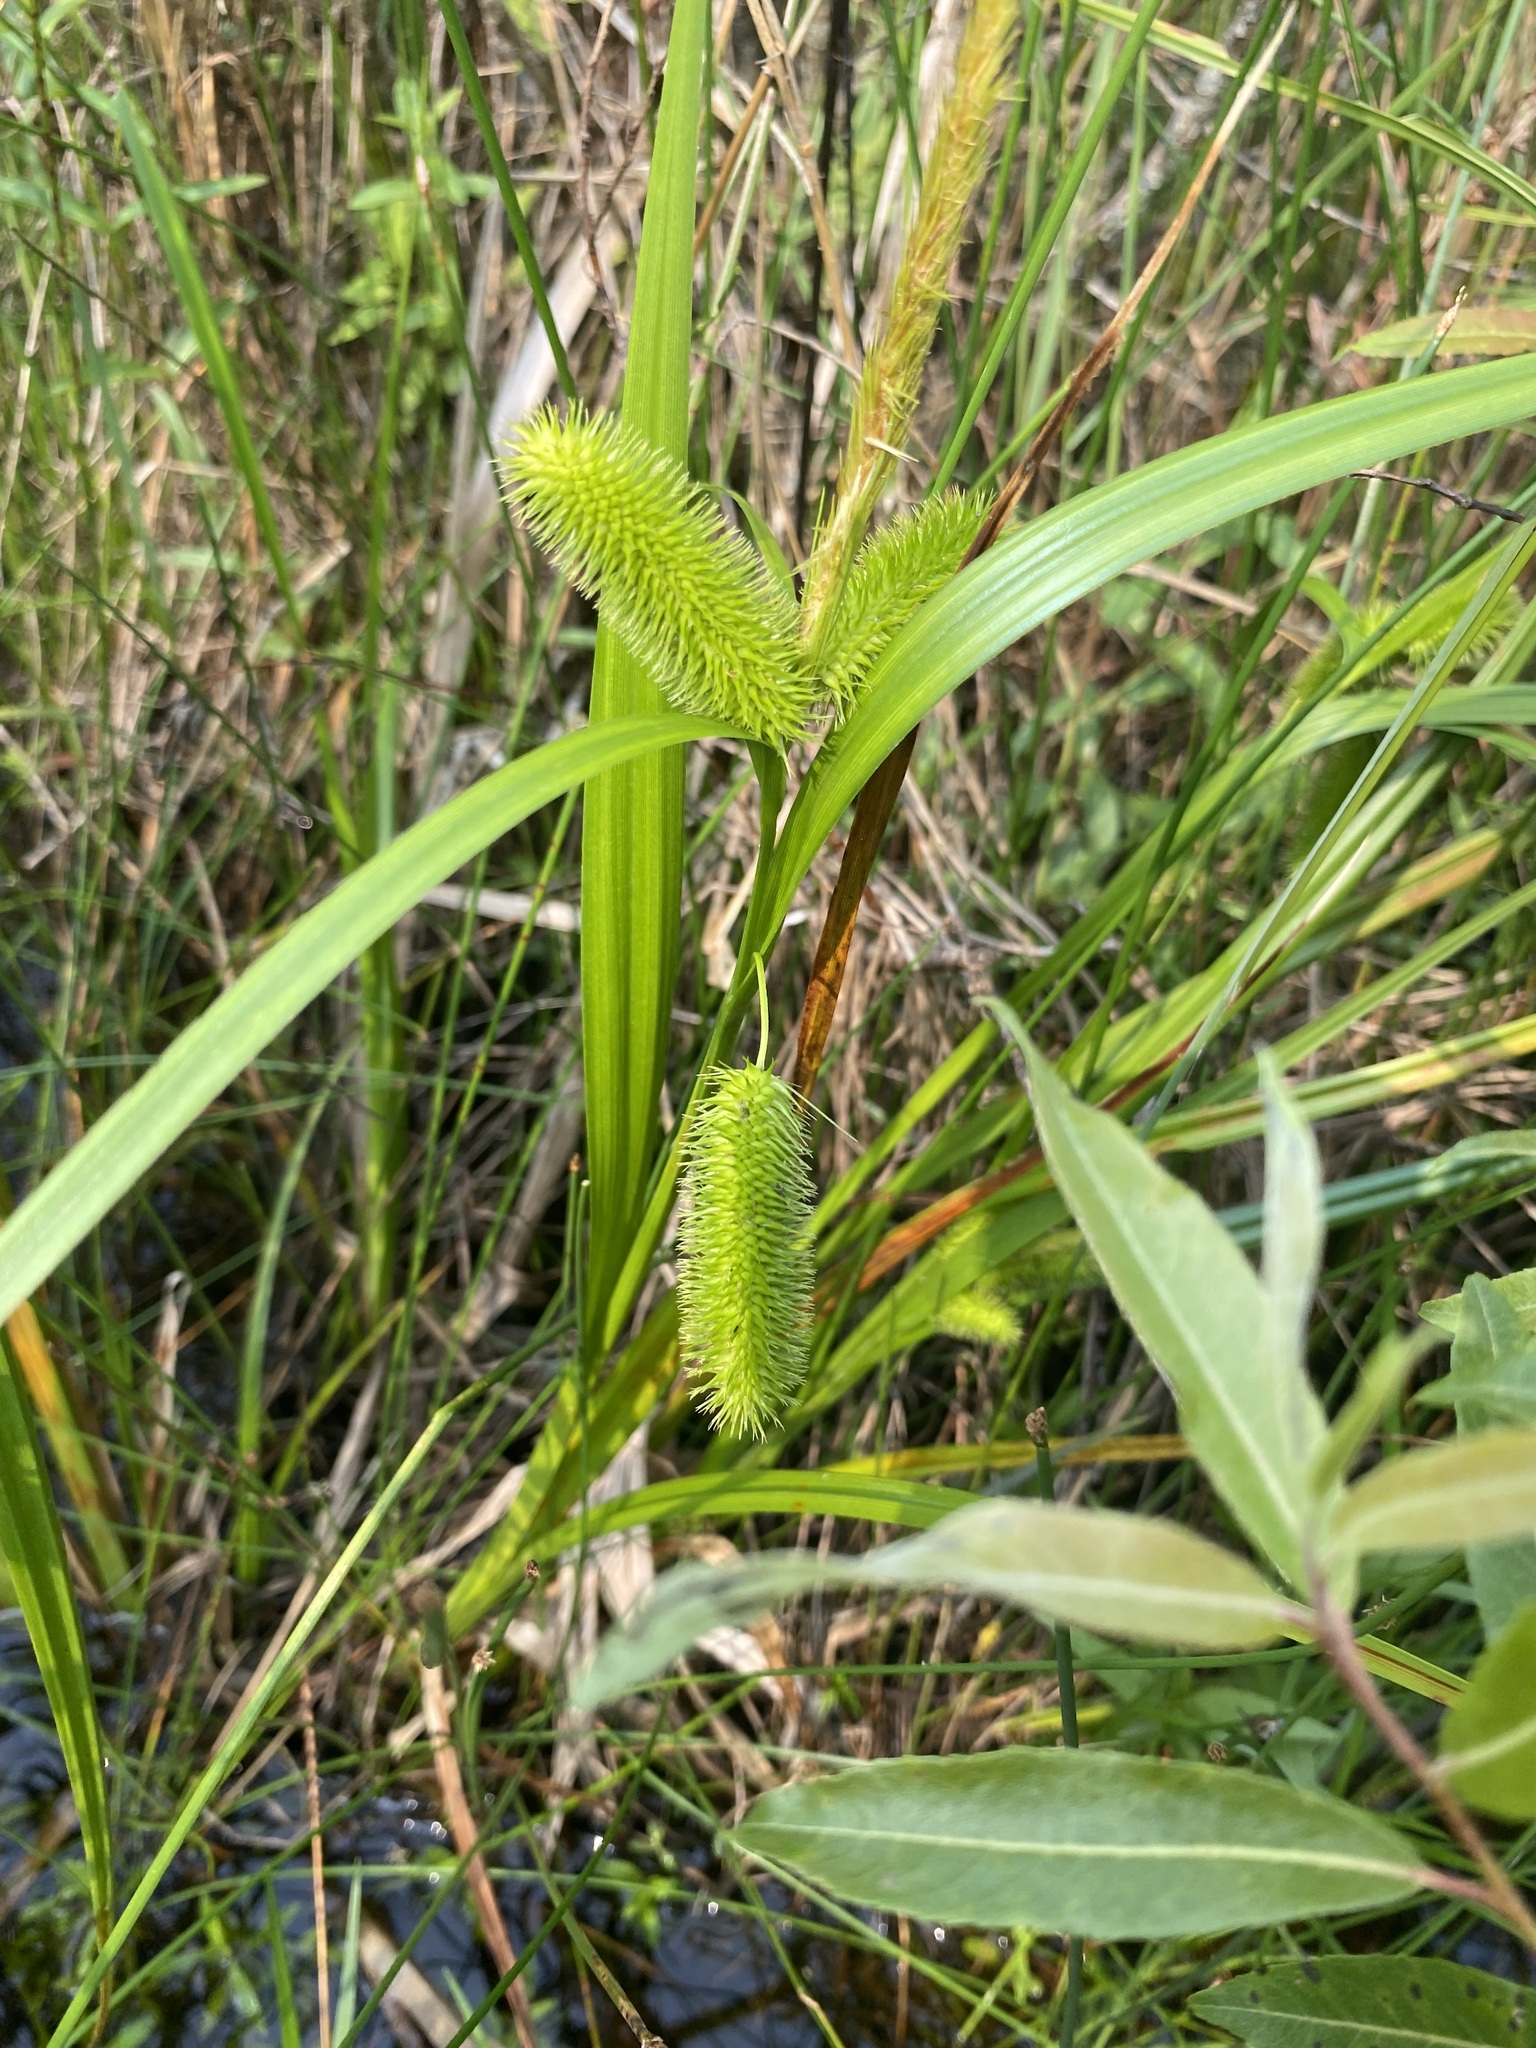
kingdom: Plantae
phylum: Tracheophyta
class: Liliopsida
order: Poales
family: Cyperaceae
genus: Carex
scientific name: Carex comosa
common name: Bristly sedge
